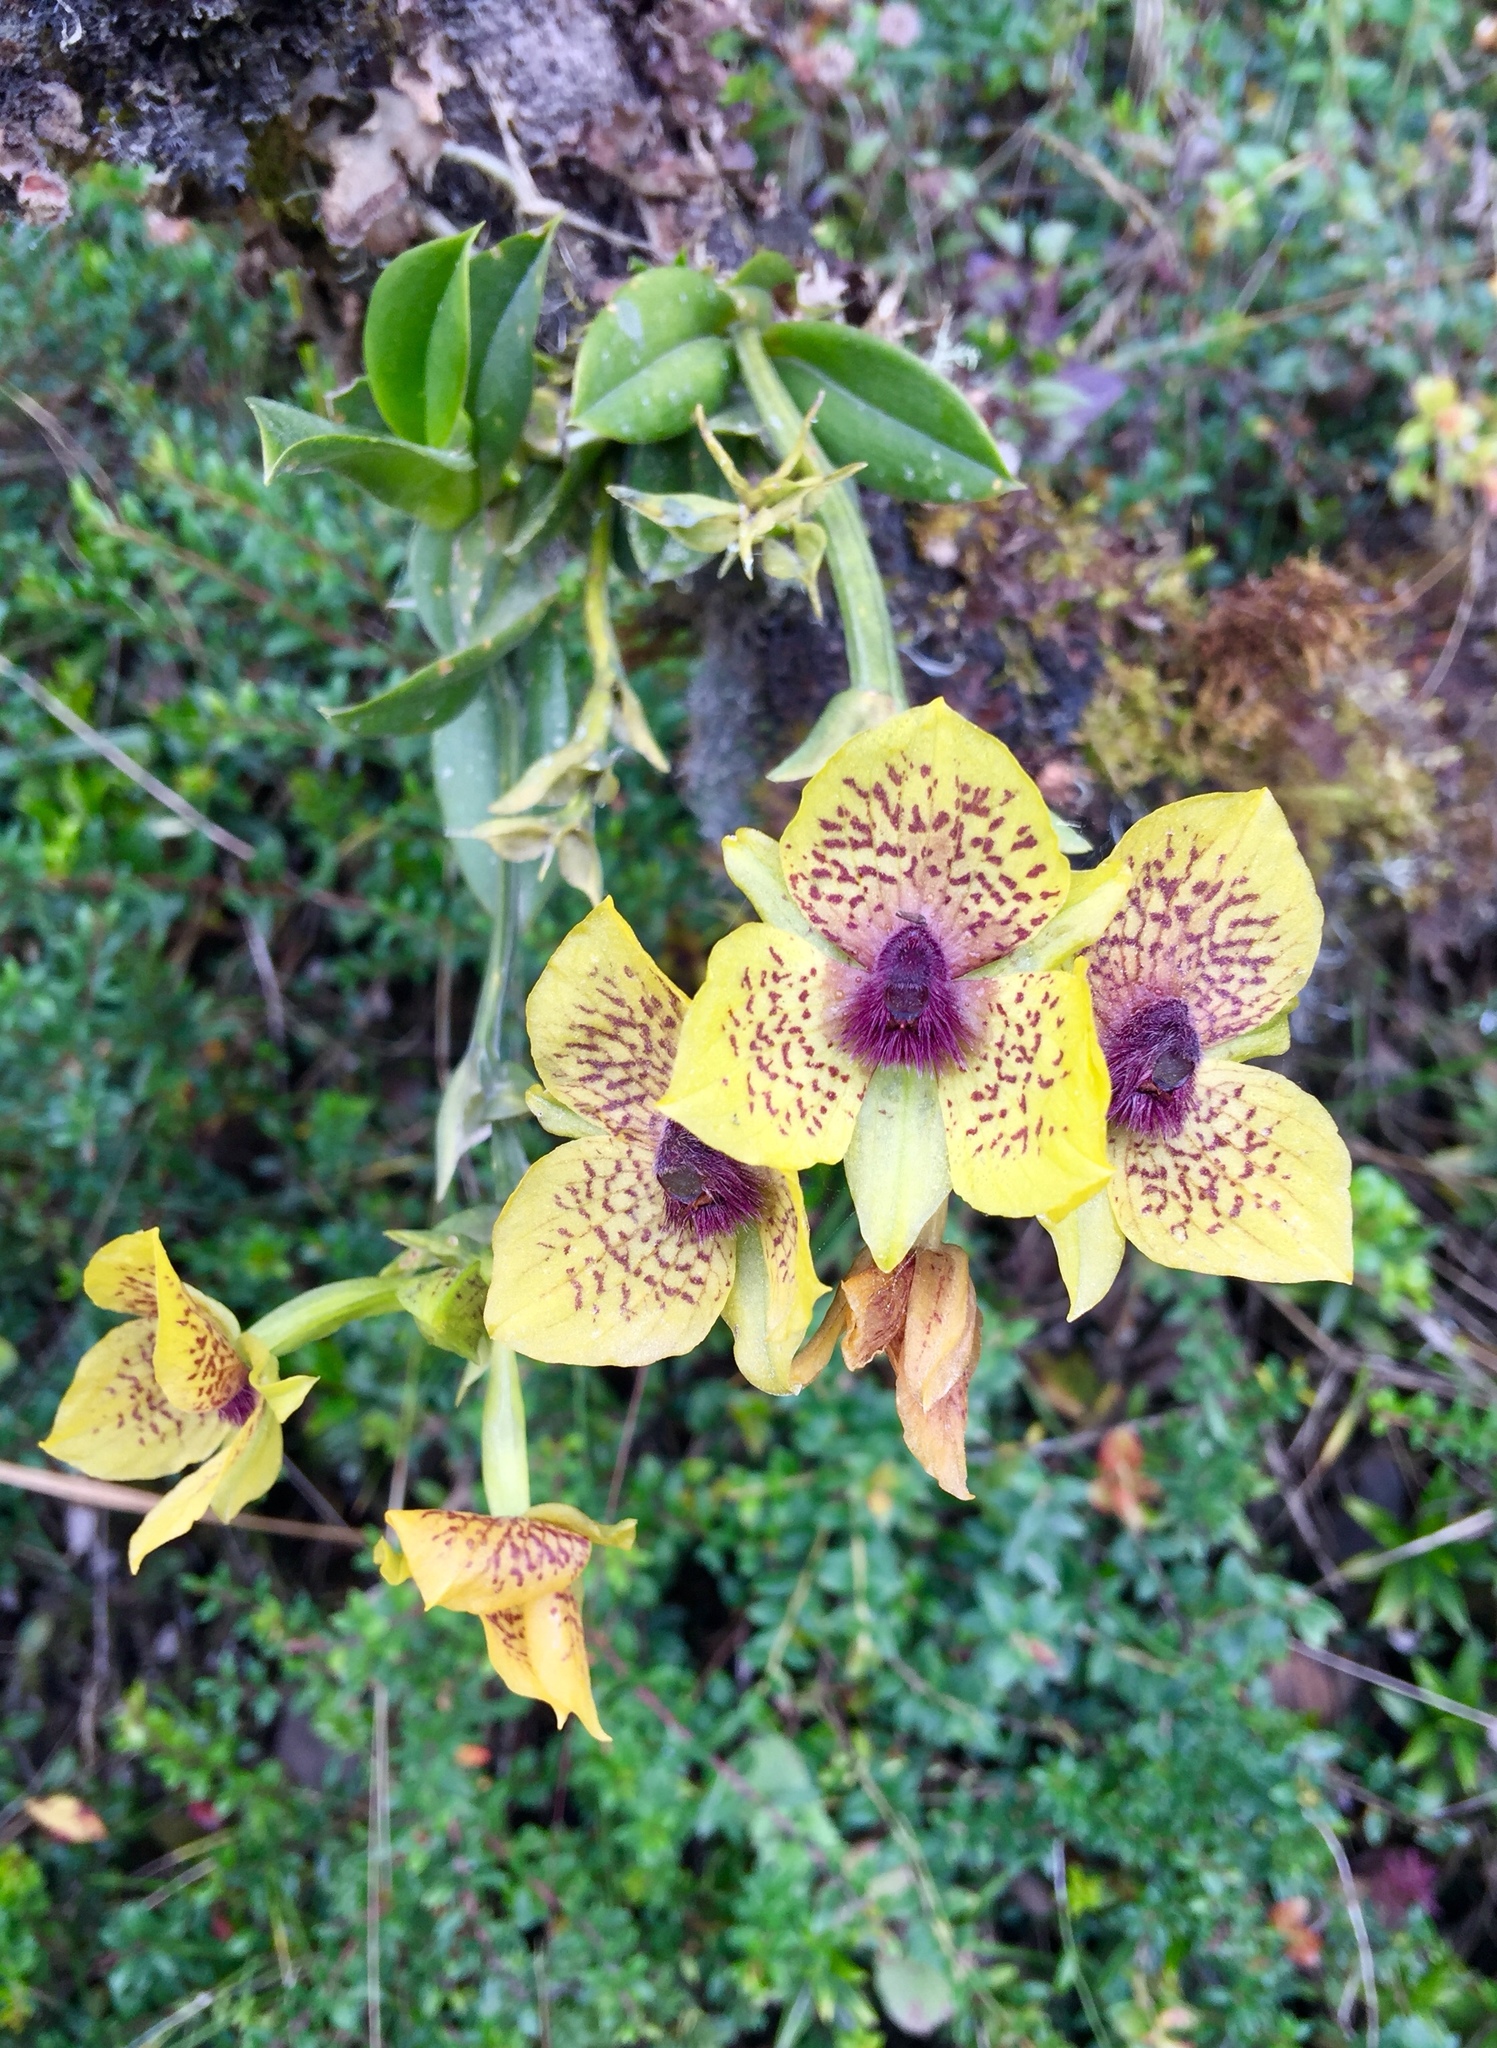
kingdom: Plantae
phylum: Tracheophyta
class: Liliopsida
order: Asparagales
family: Orchidaceae
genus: Telipogon
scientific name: Telipogon yolandae
